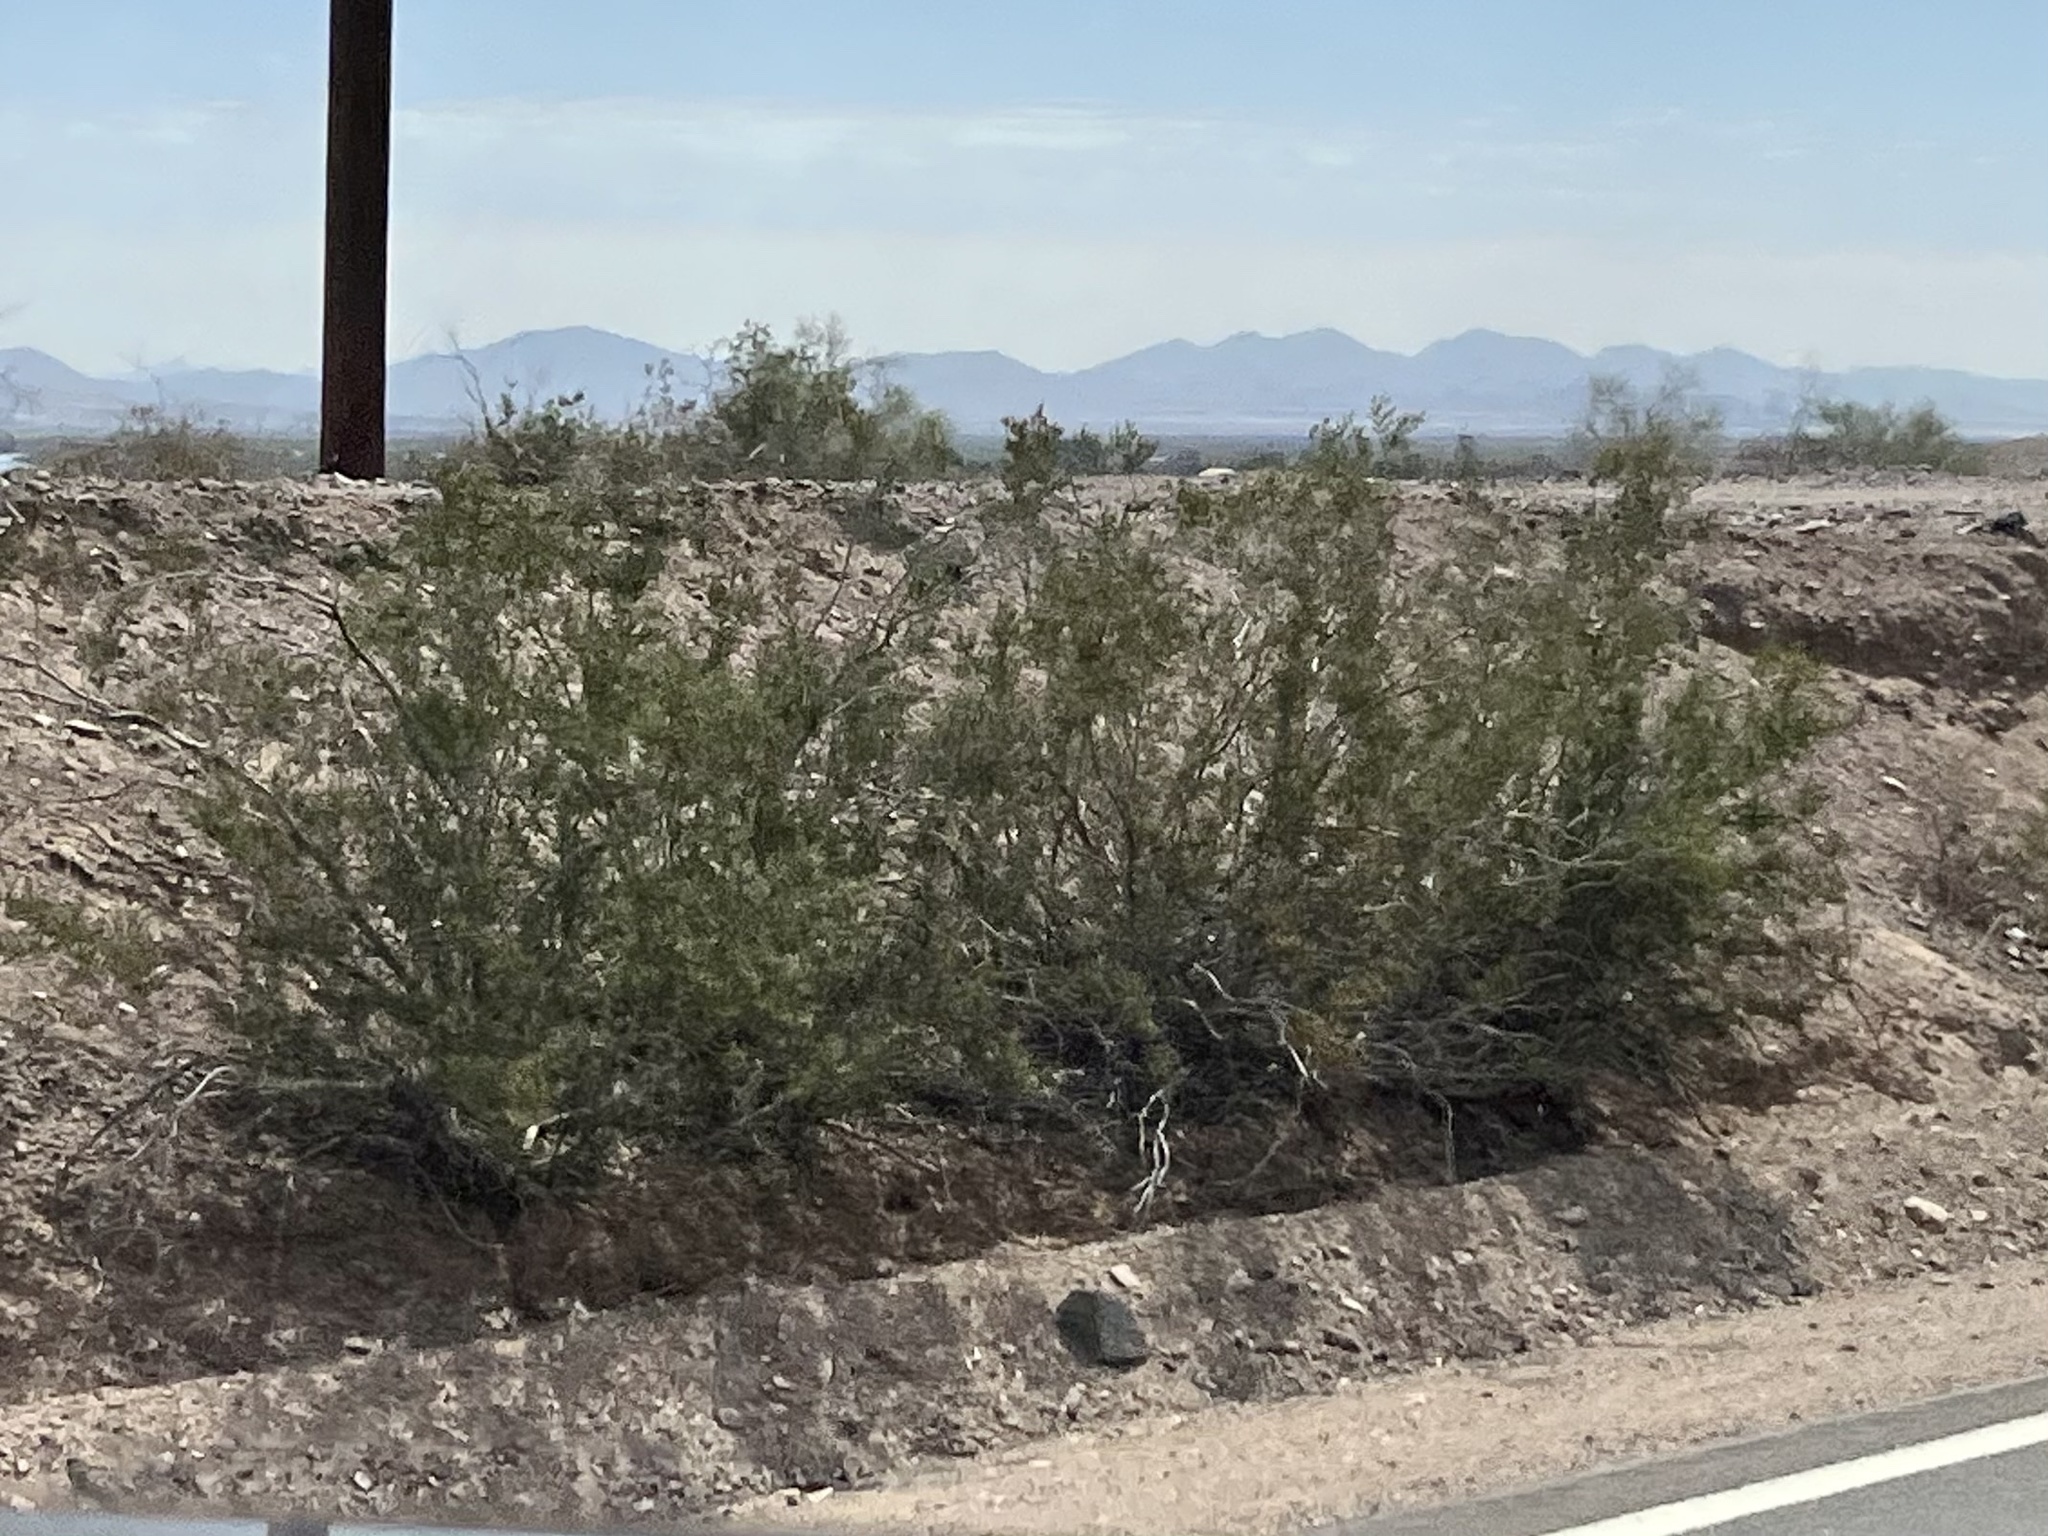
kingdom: Plantae
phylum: Tracheophyta
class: Magnoliopsida
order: Zygophyllales
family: Zygophyllaceae
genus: Larrea
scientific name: Larrea tridentata
